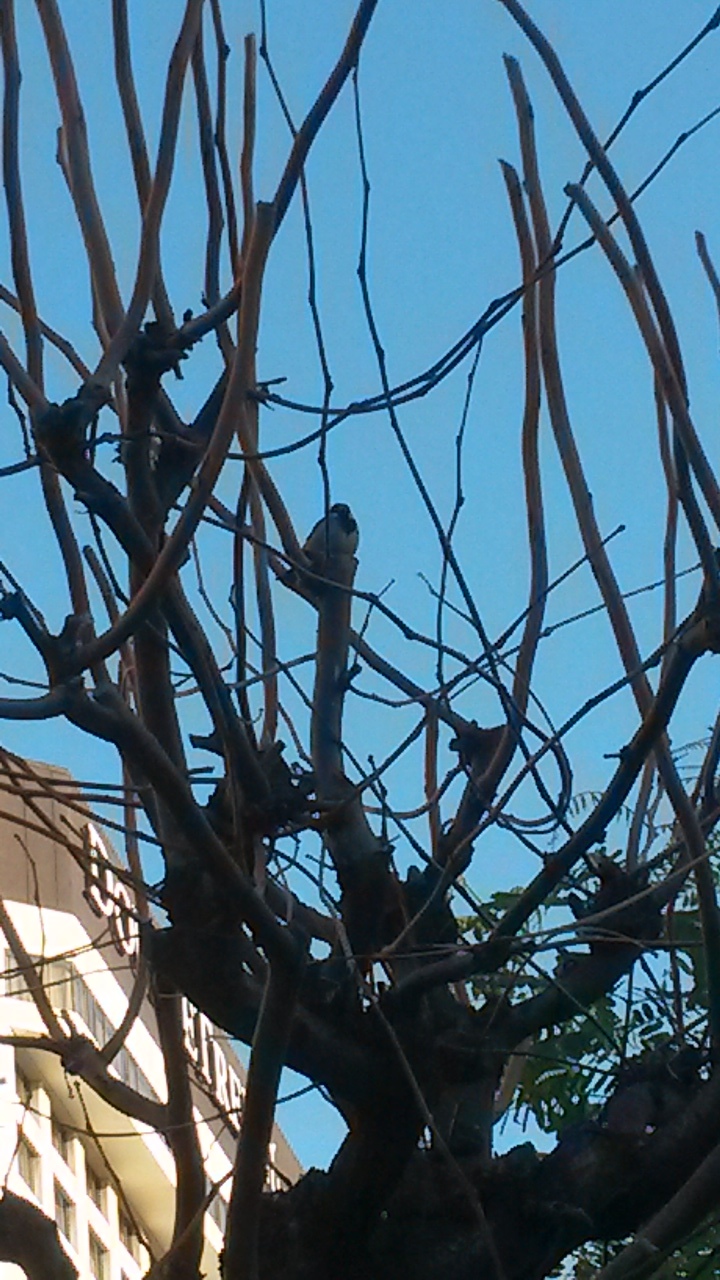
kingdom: Animalia
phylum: Chordata
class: Aves
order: Passeriformes
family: Passeridae
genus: Passer
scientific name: Passer domesticus
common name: House sparrow
